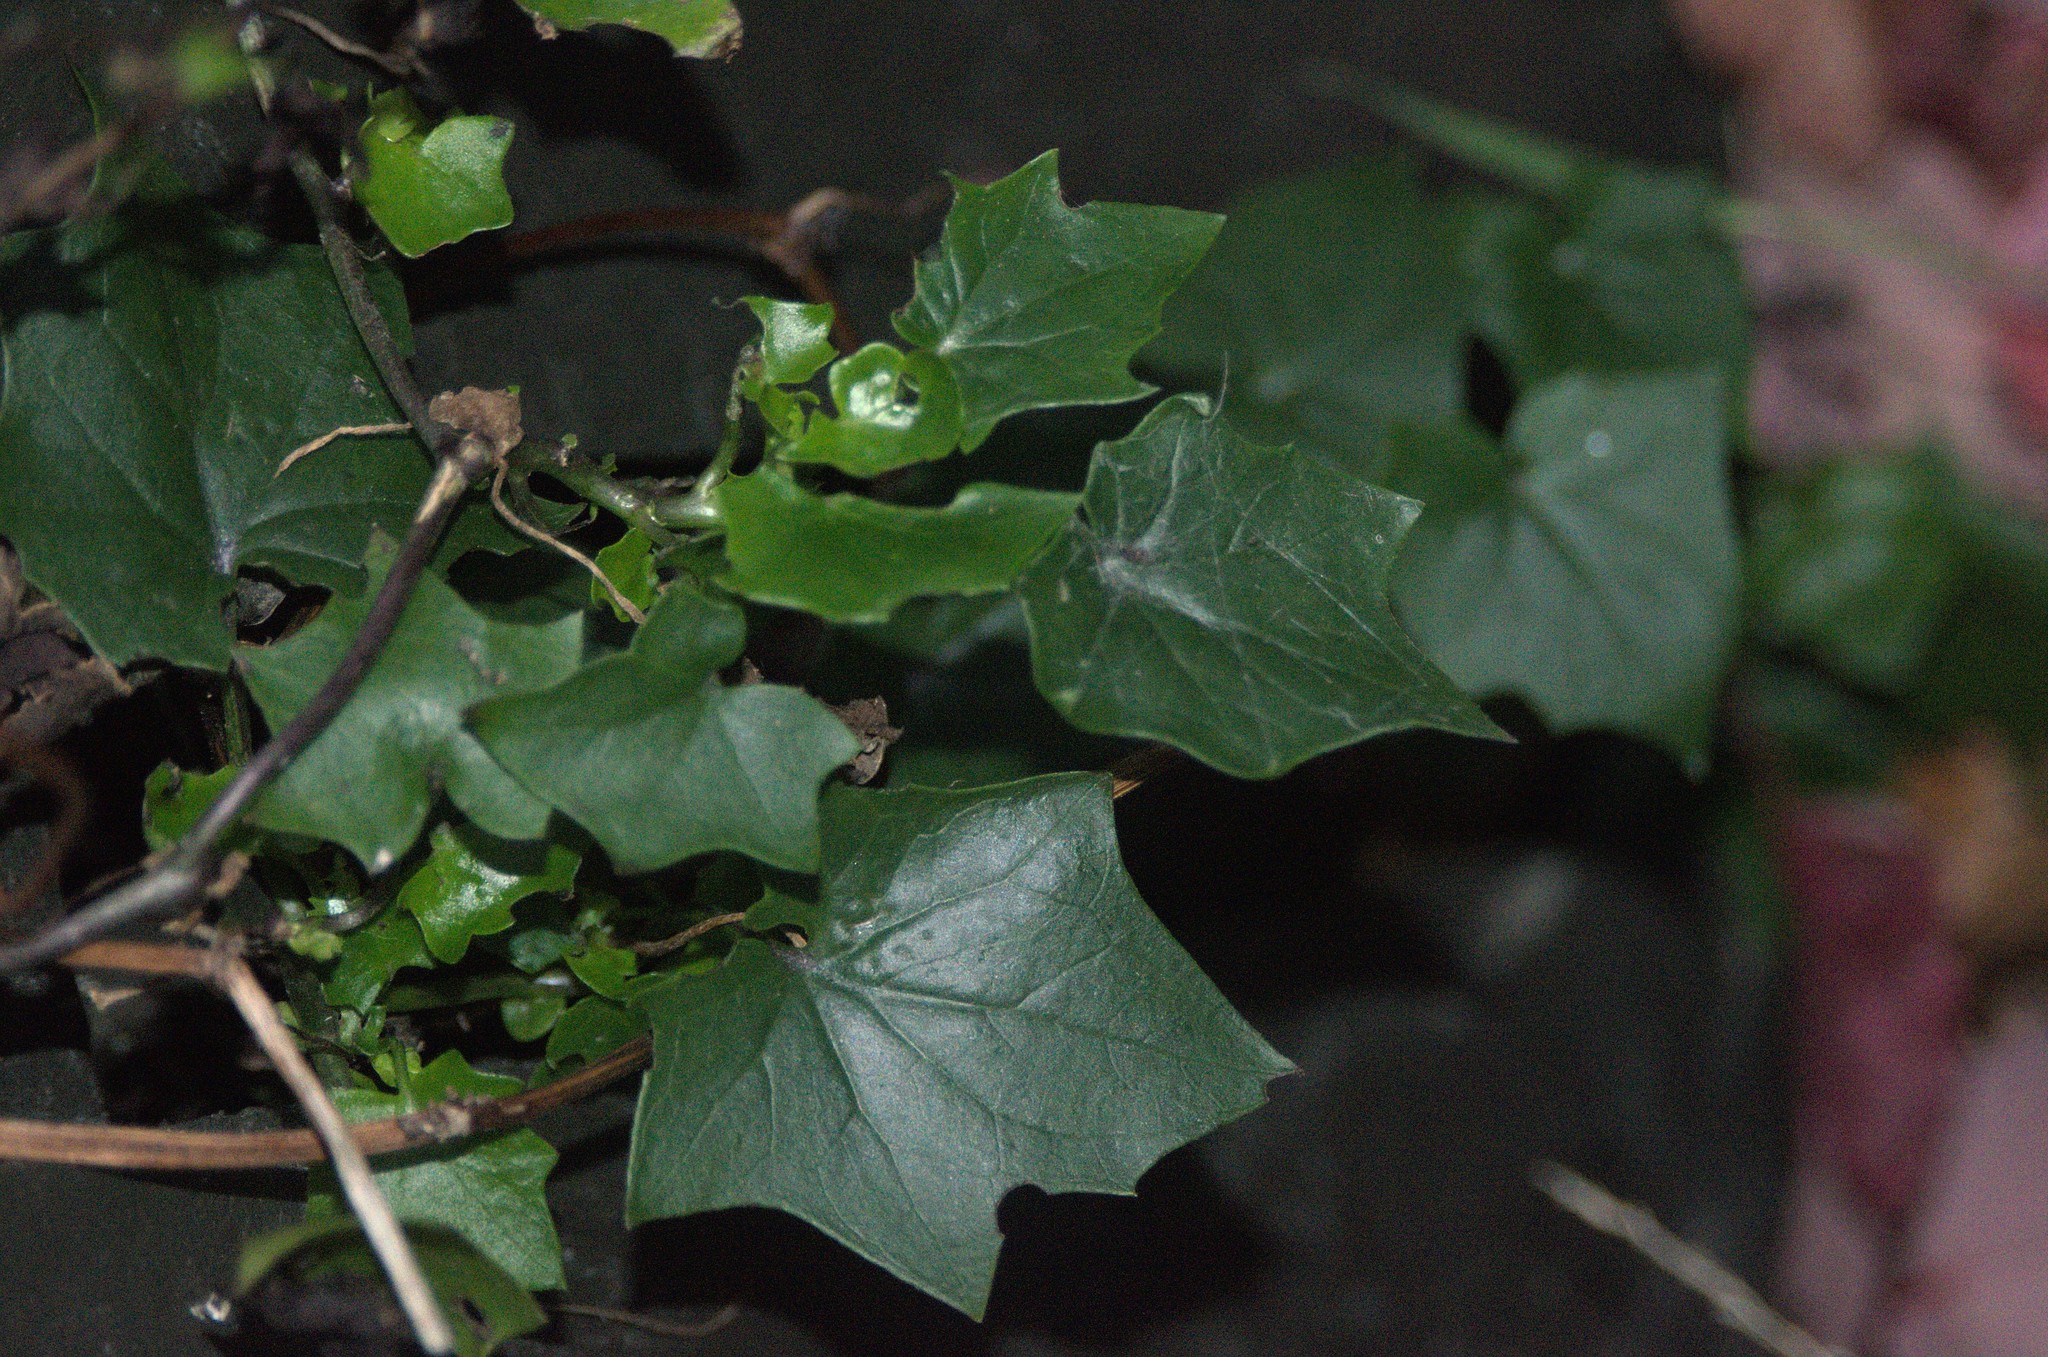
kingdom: Plantae
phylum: Tracheophyta
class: Magnoliopsida
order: Asterales
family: Asteraceae
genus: Delairea
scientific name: Delairea odorata
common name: Cape-ivy
